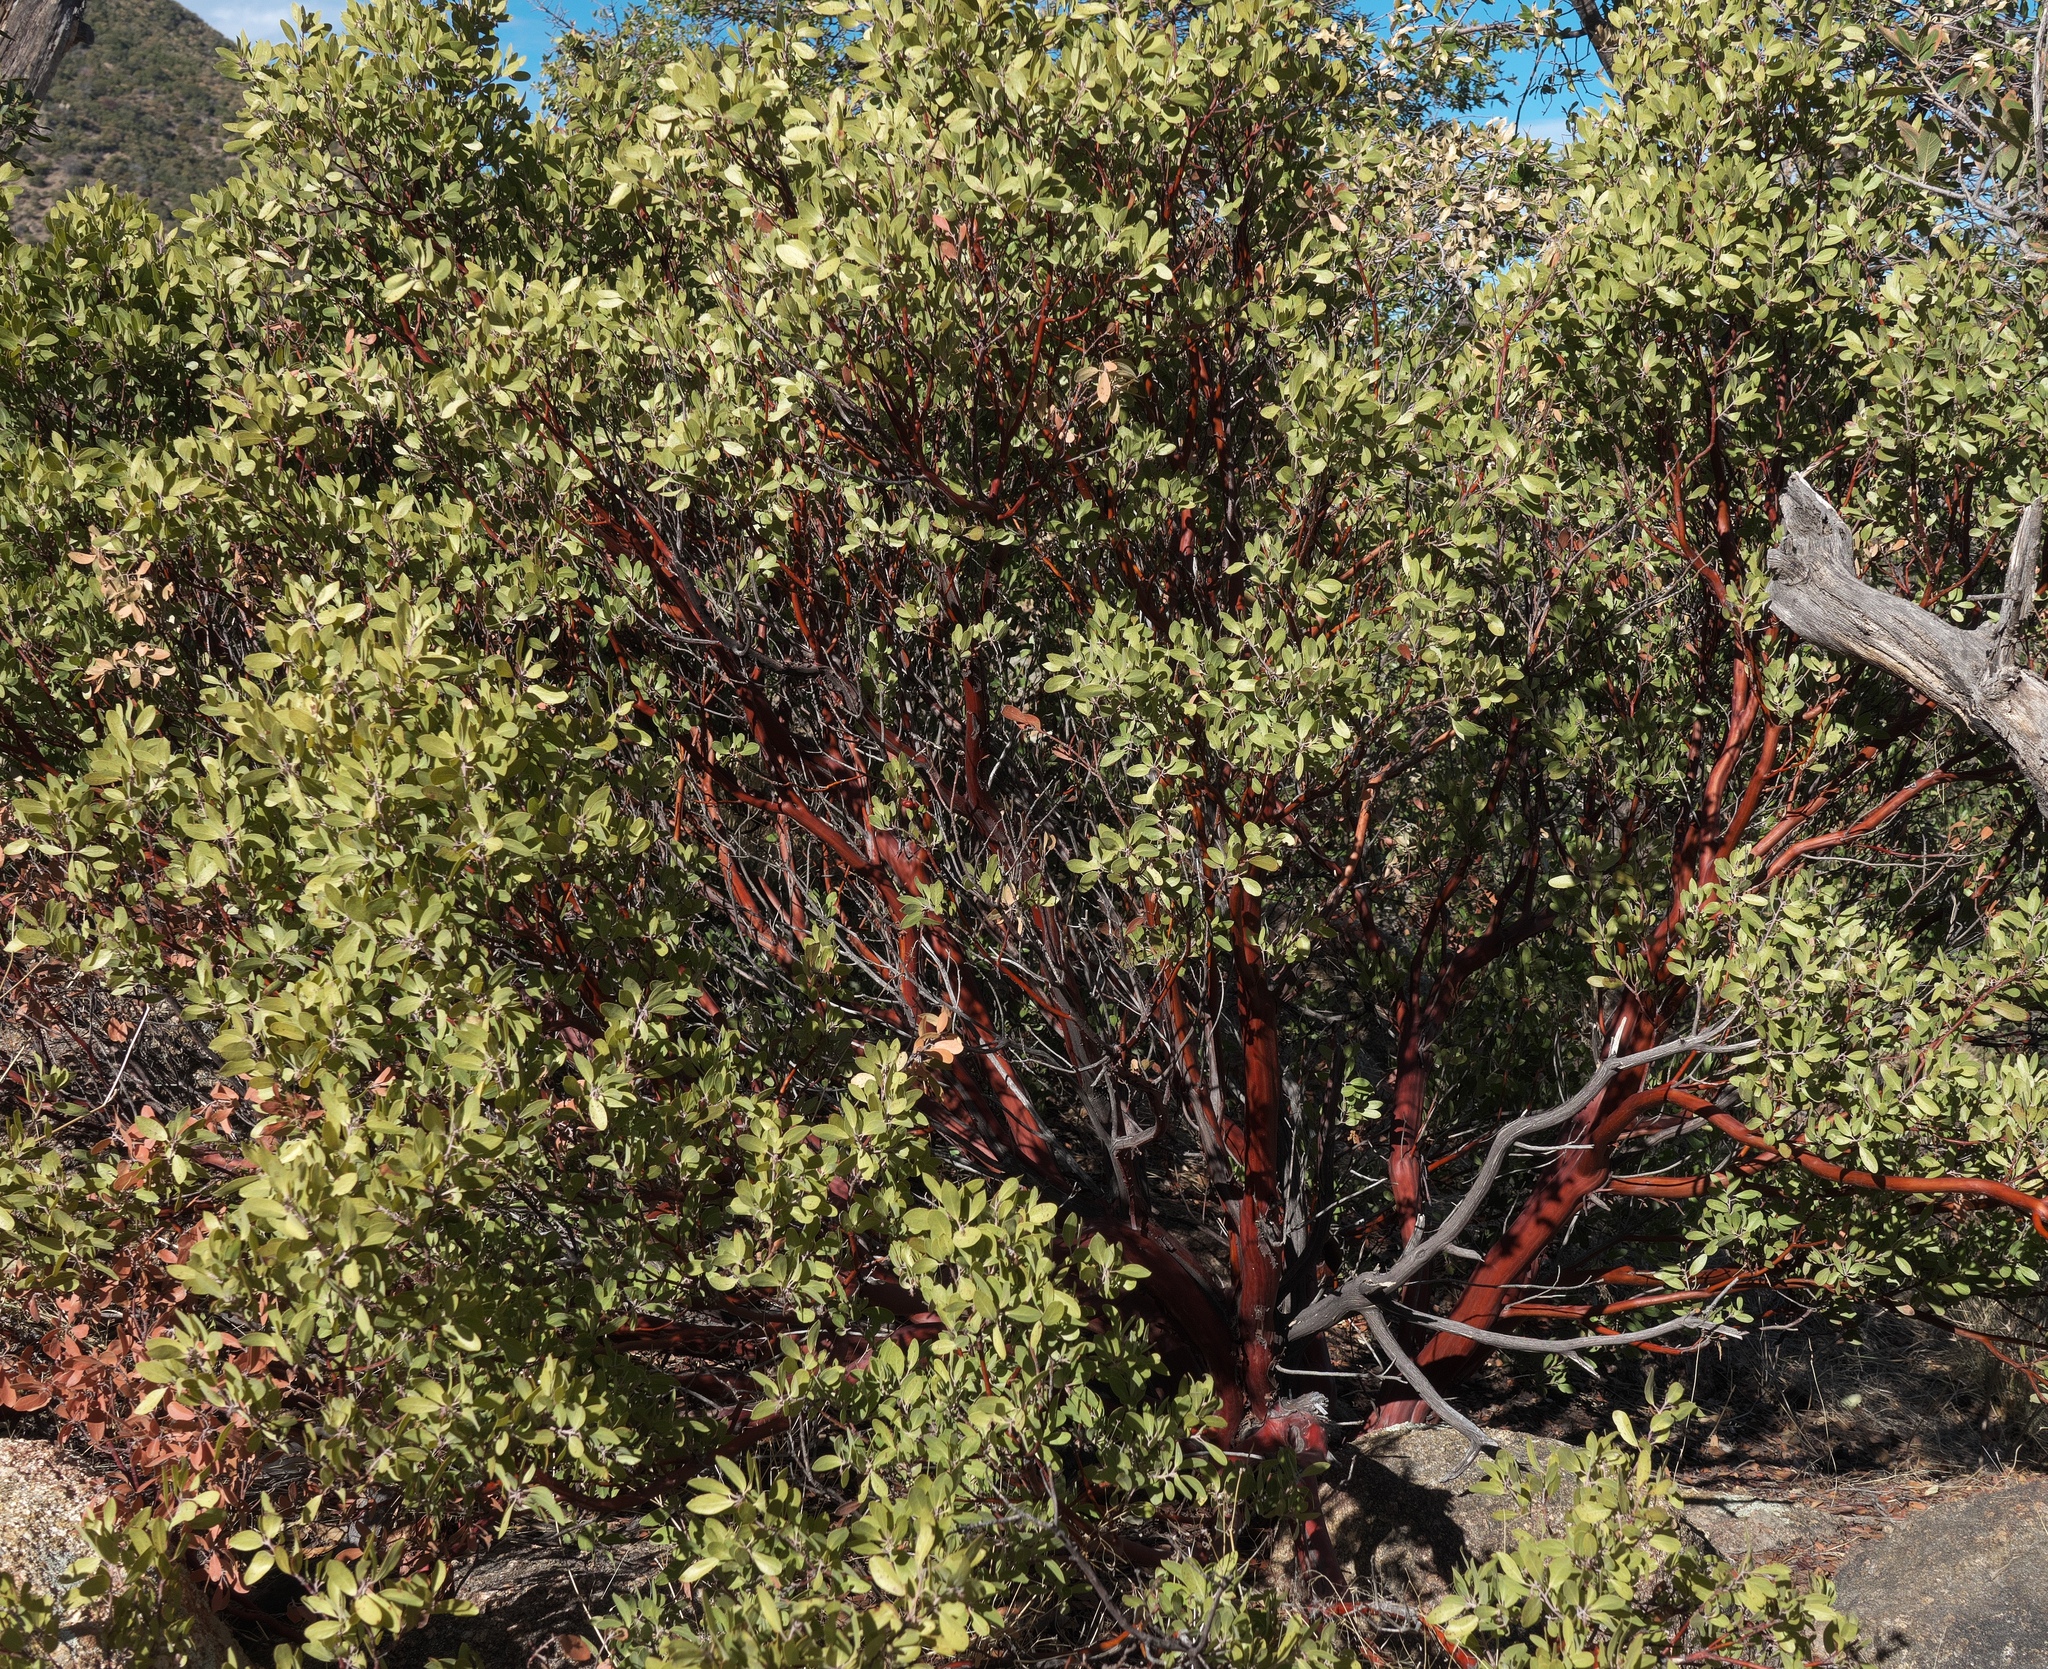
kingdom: Plantae
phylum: Tracheophyta
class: Magnoliopsida
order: Ericales
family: Ericaceae
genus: Arctostaphylos
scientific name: Arctostaphylos pungens
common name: Mexican manzanita
